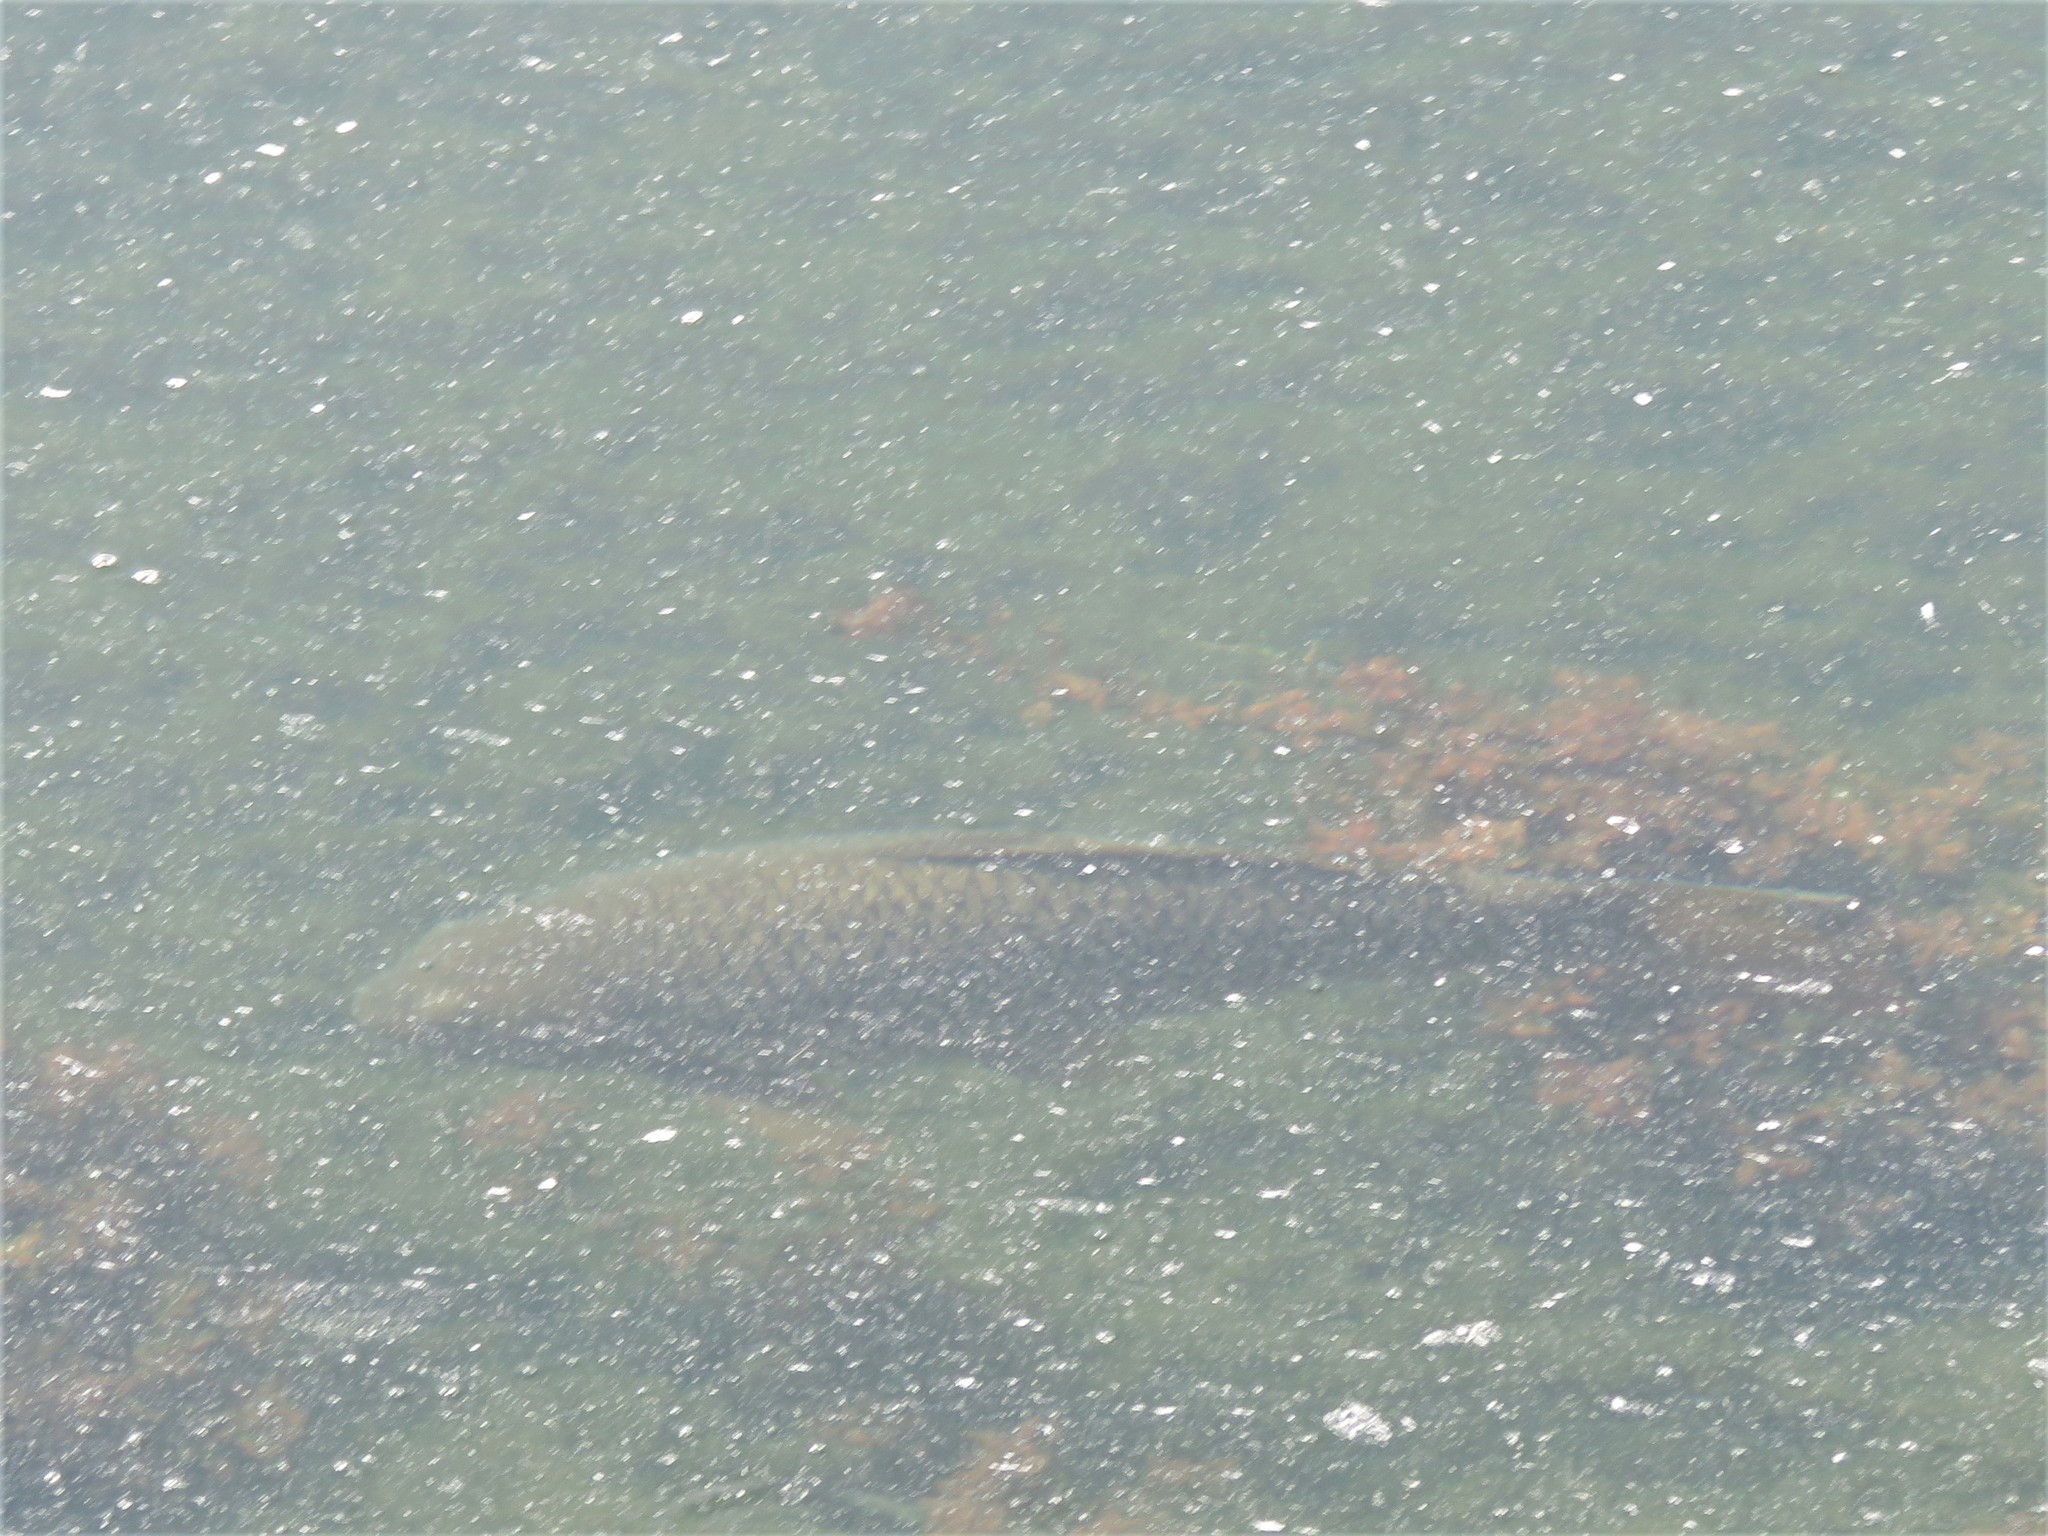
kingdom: Animalia
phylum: Chordata
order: Cypriniformes
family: Cyprinidae
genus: Cyprinus
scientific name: Cyprinus carpio
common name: Common carp
